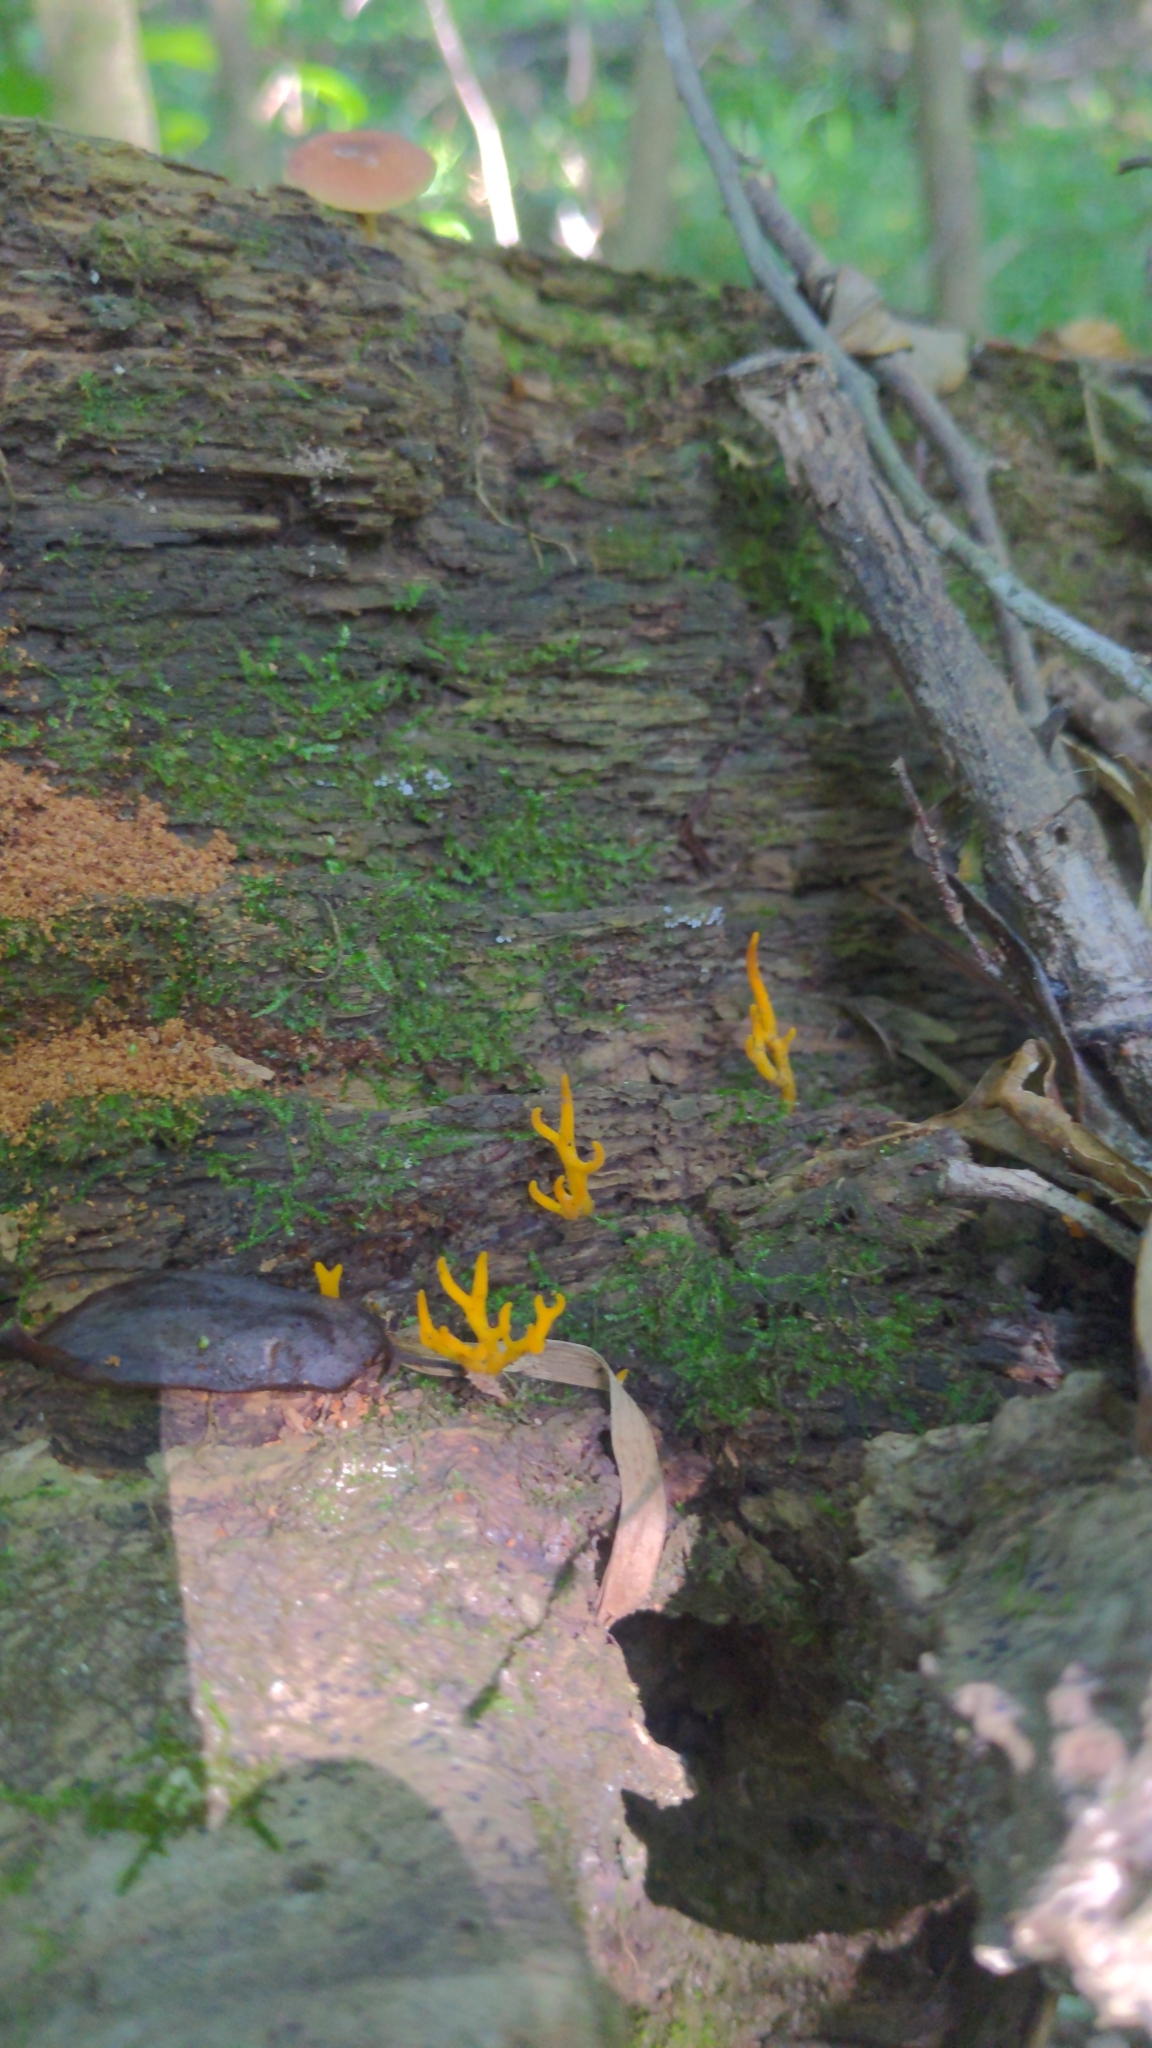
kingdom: Fungi
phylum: Basidiomycota
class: Dacrymycetes
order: Dacrymycetales
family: Dacrymycetaceae
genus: Calocera
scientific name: Calocera cornea
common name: Small stagshorn
